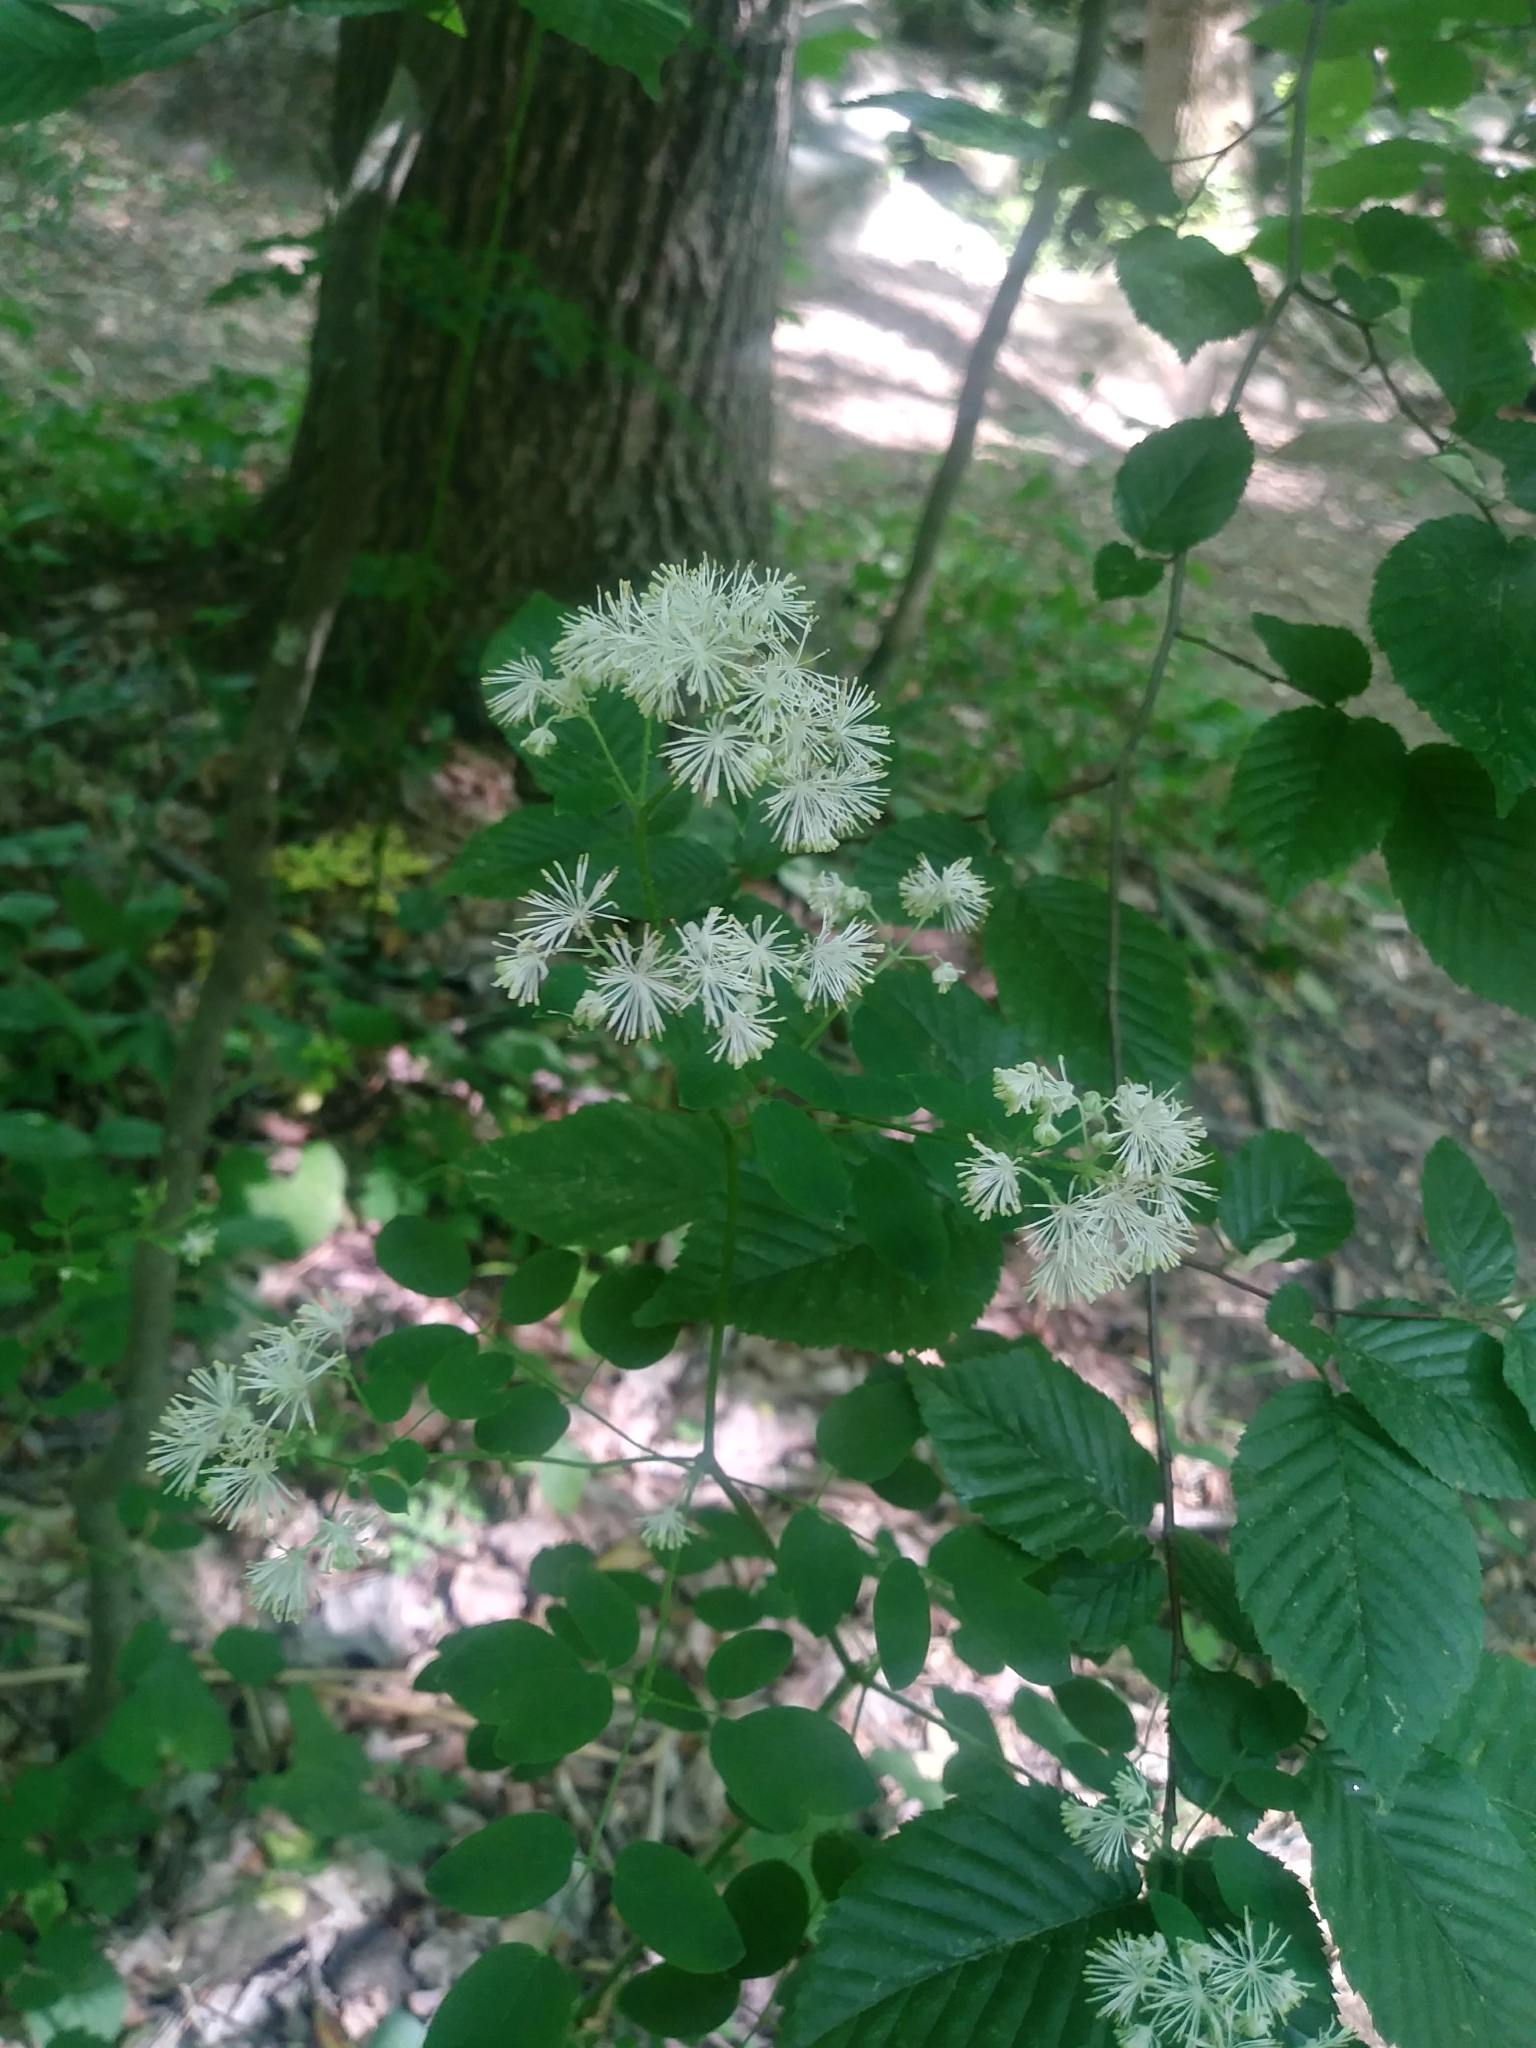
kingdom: Plantae
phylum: Tracheophyta
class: Magnoliopsida
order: Ranunculales
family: Ranunculaceae
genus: Thalictrum
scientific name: Thalictrum pubescens
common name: King-of-the-meadow
